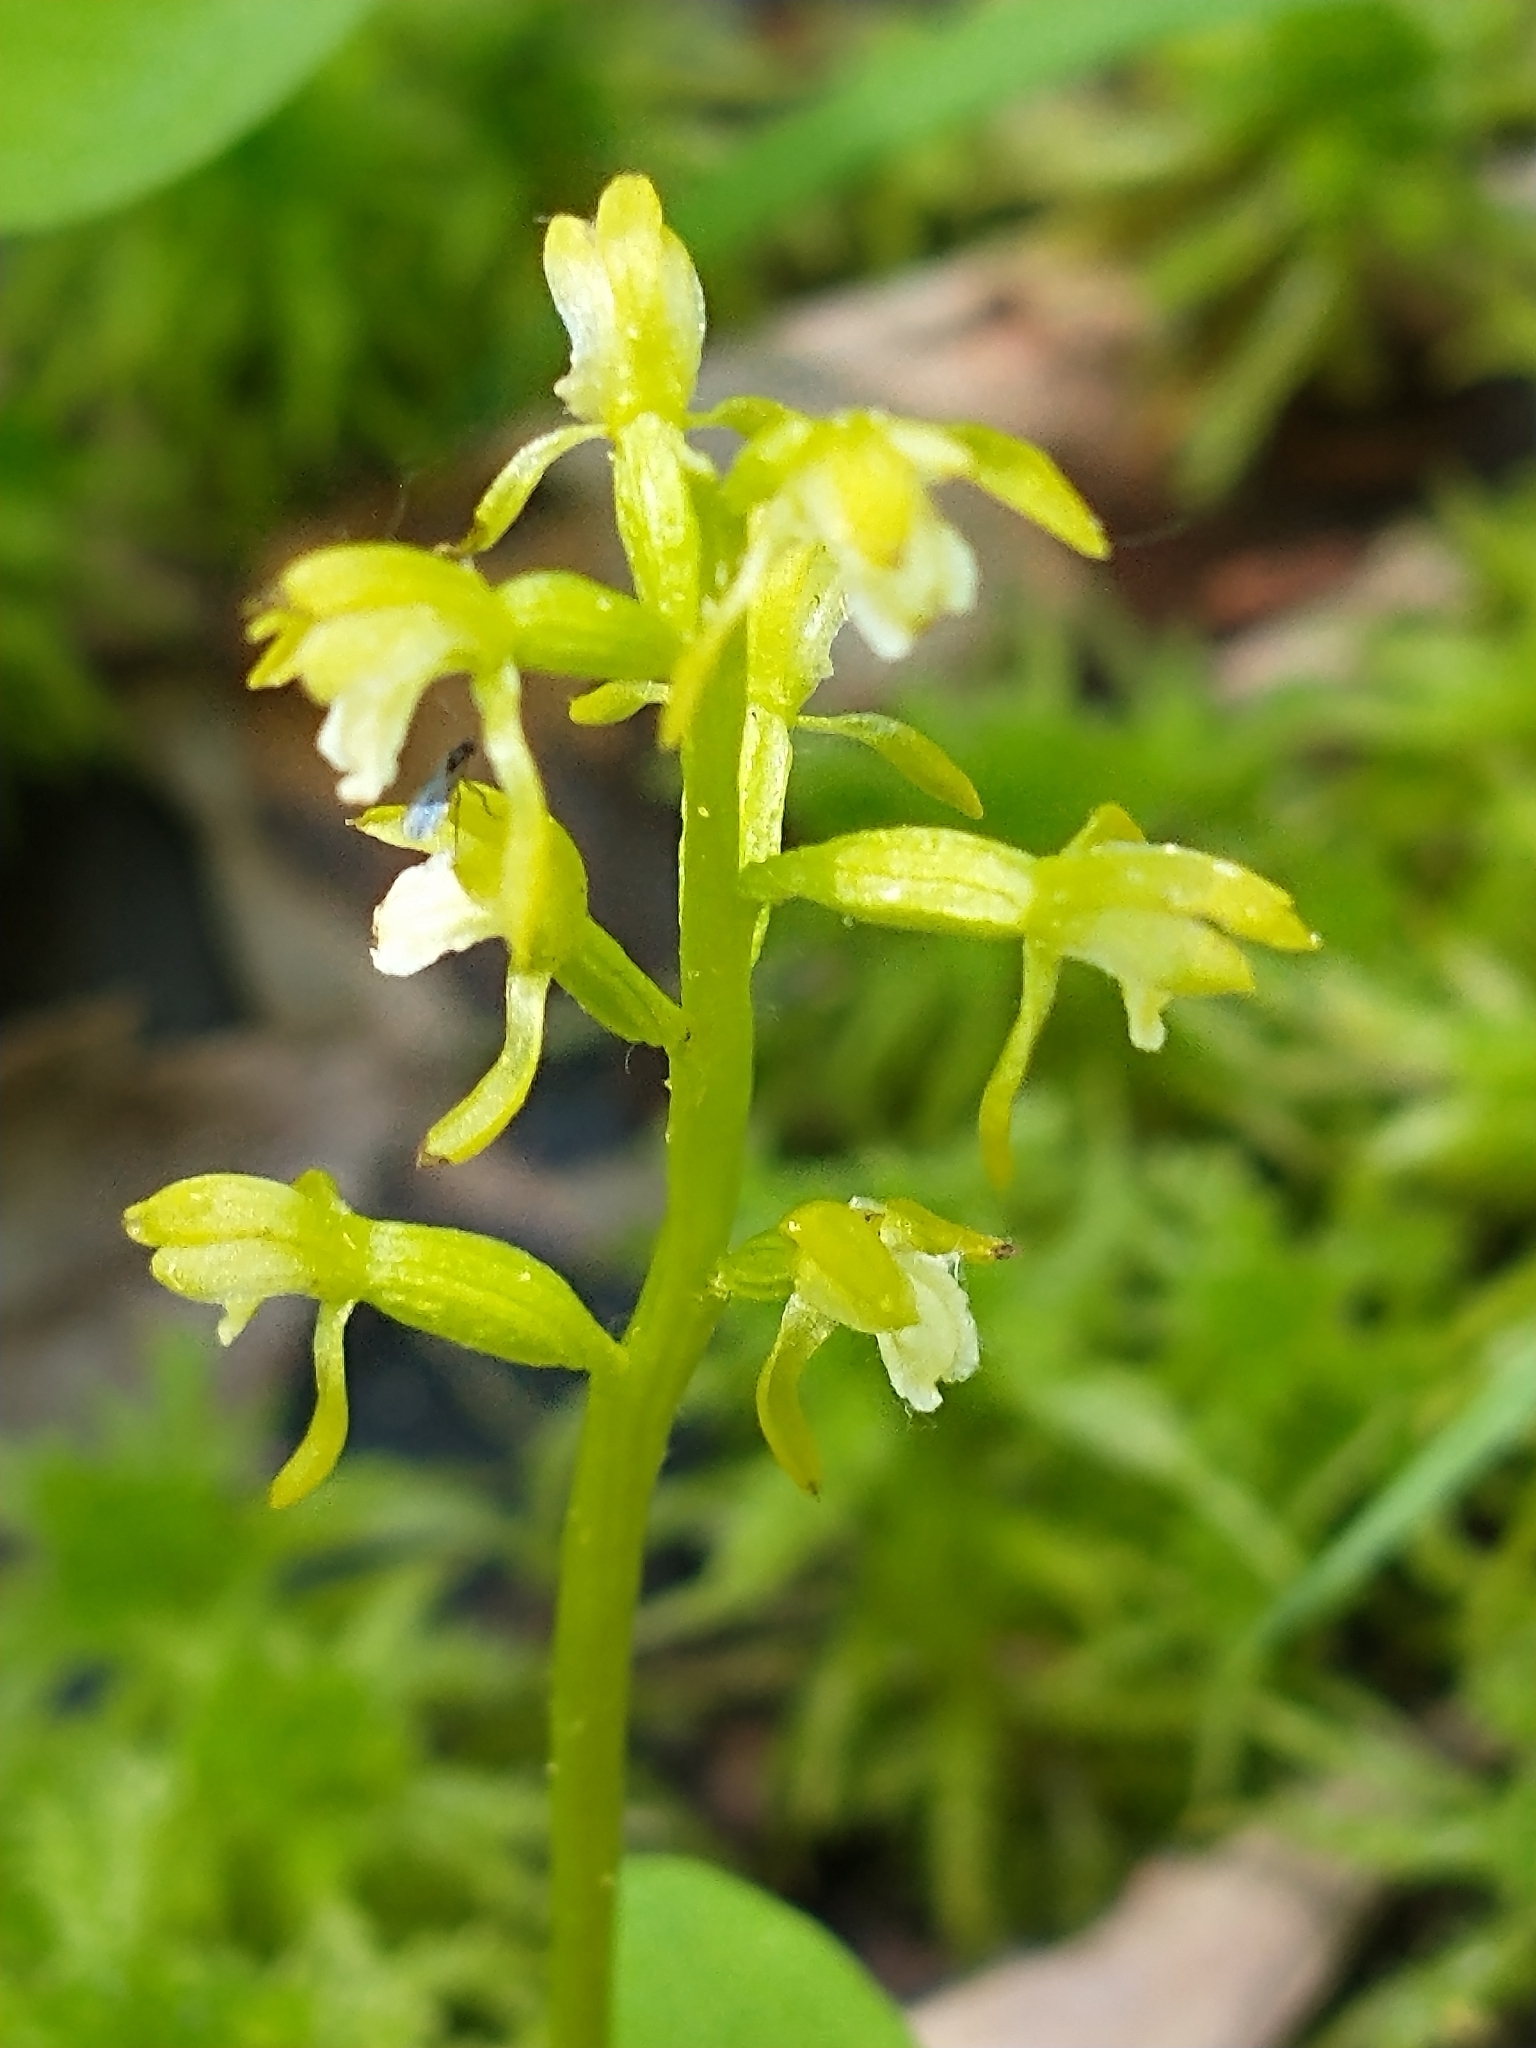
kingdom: Plantae
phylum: Tracheophyta
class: Liliopsida
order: Asparagales
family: Orchidaceae
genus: Corallorhiza
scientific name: Corallorhiza trifida
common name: Yellow coralroot
